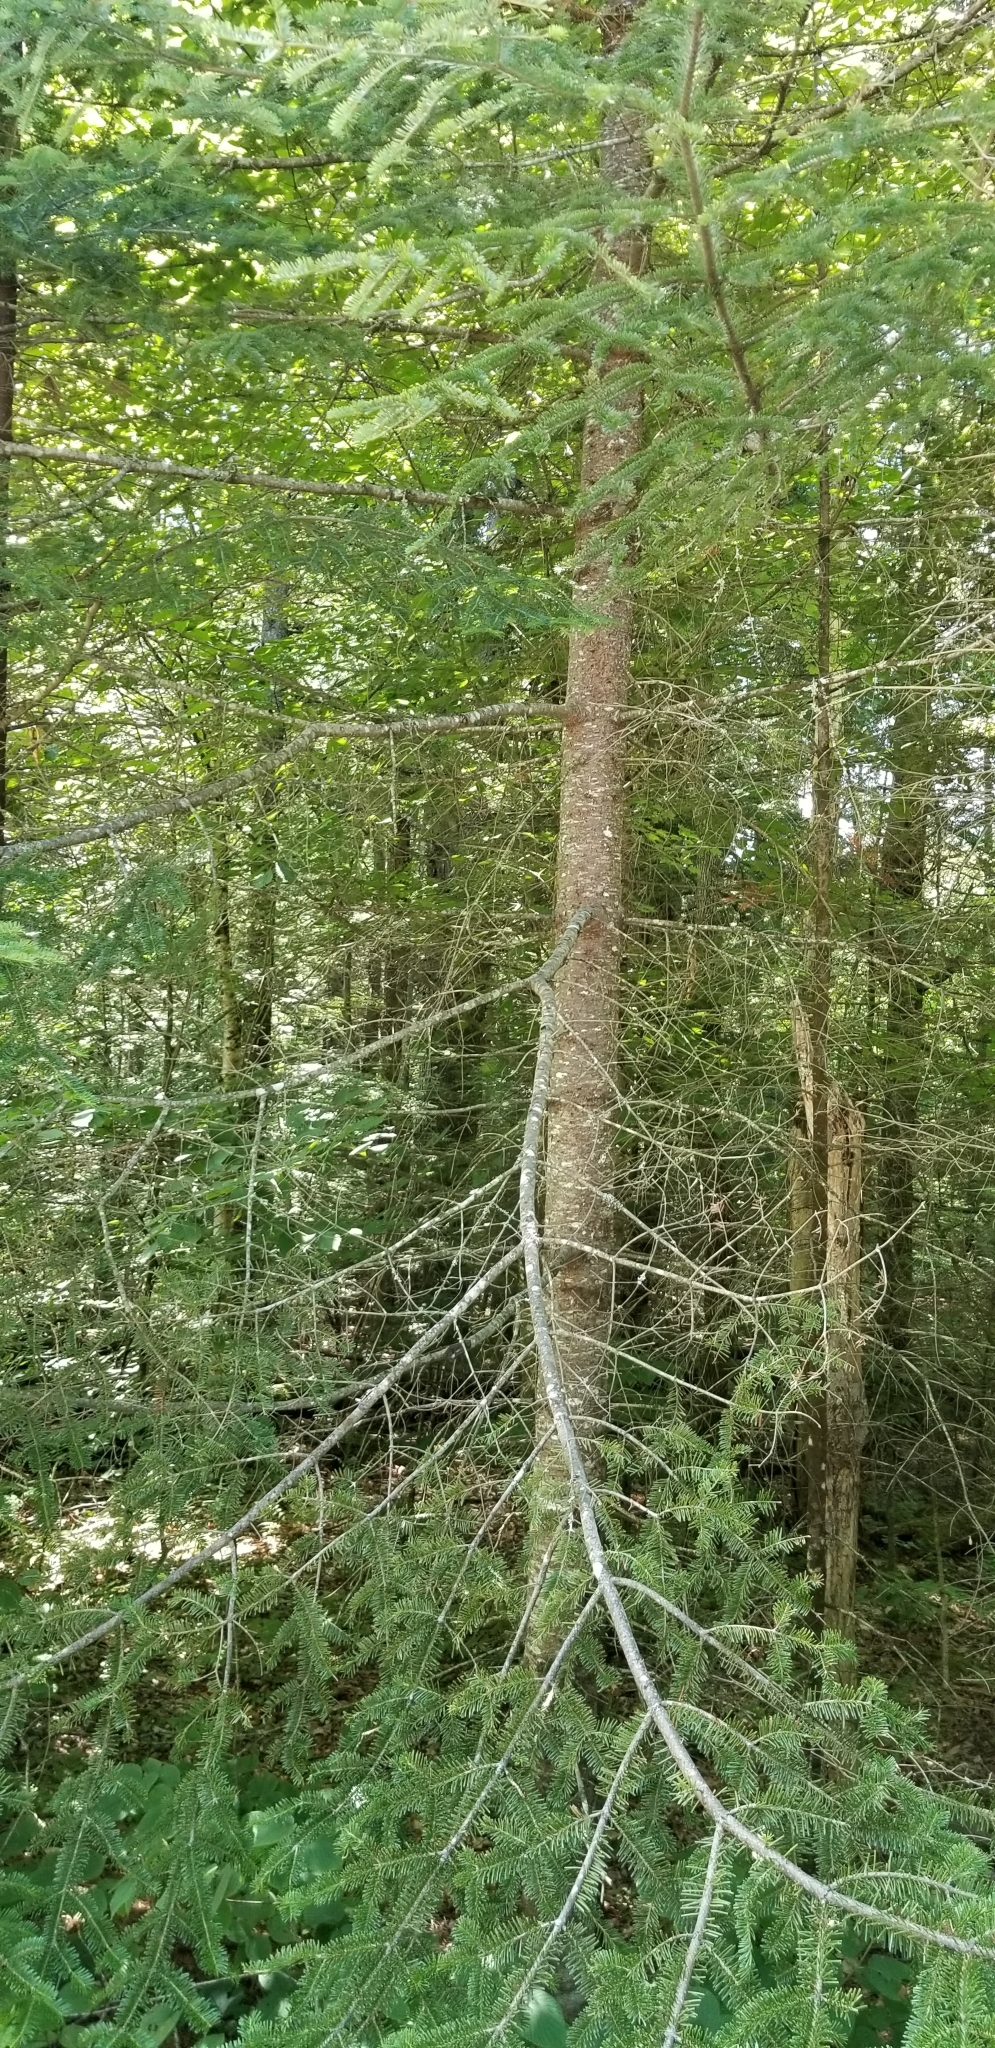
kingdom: Plantae
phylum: Tracheophyta
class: Pinopsida
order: Pinales
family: Pinaceae
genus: Abies
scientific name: Abies balsamea
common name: Balsam fir
